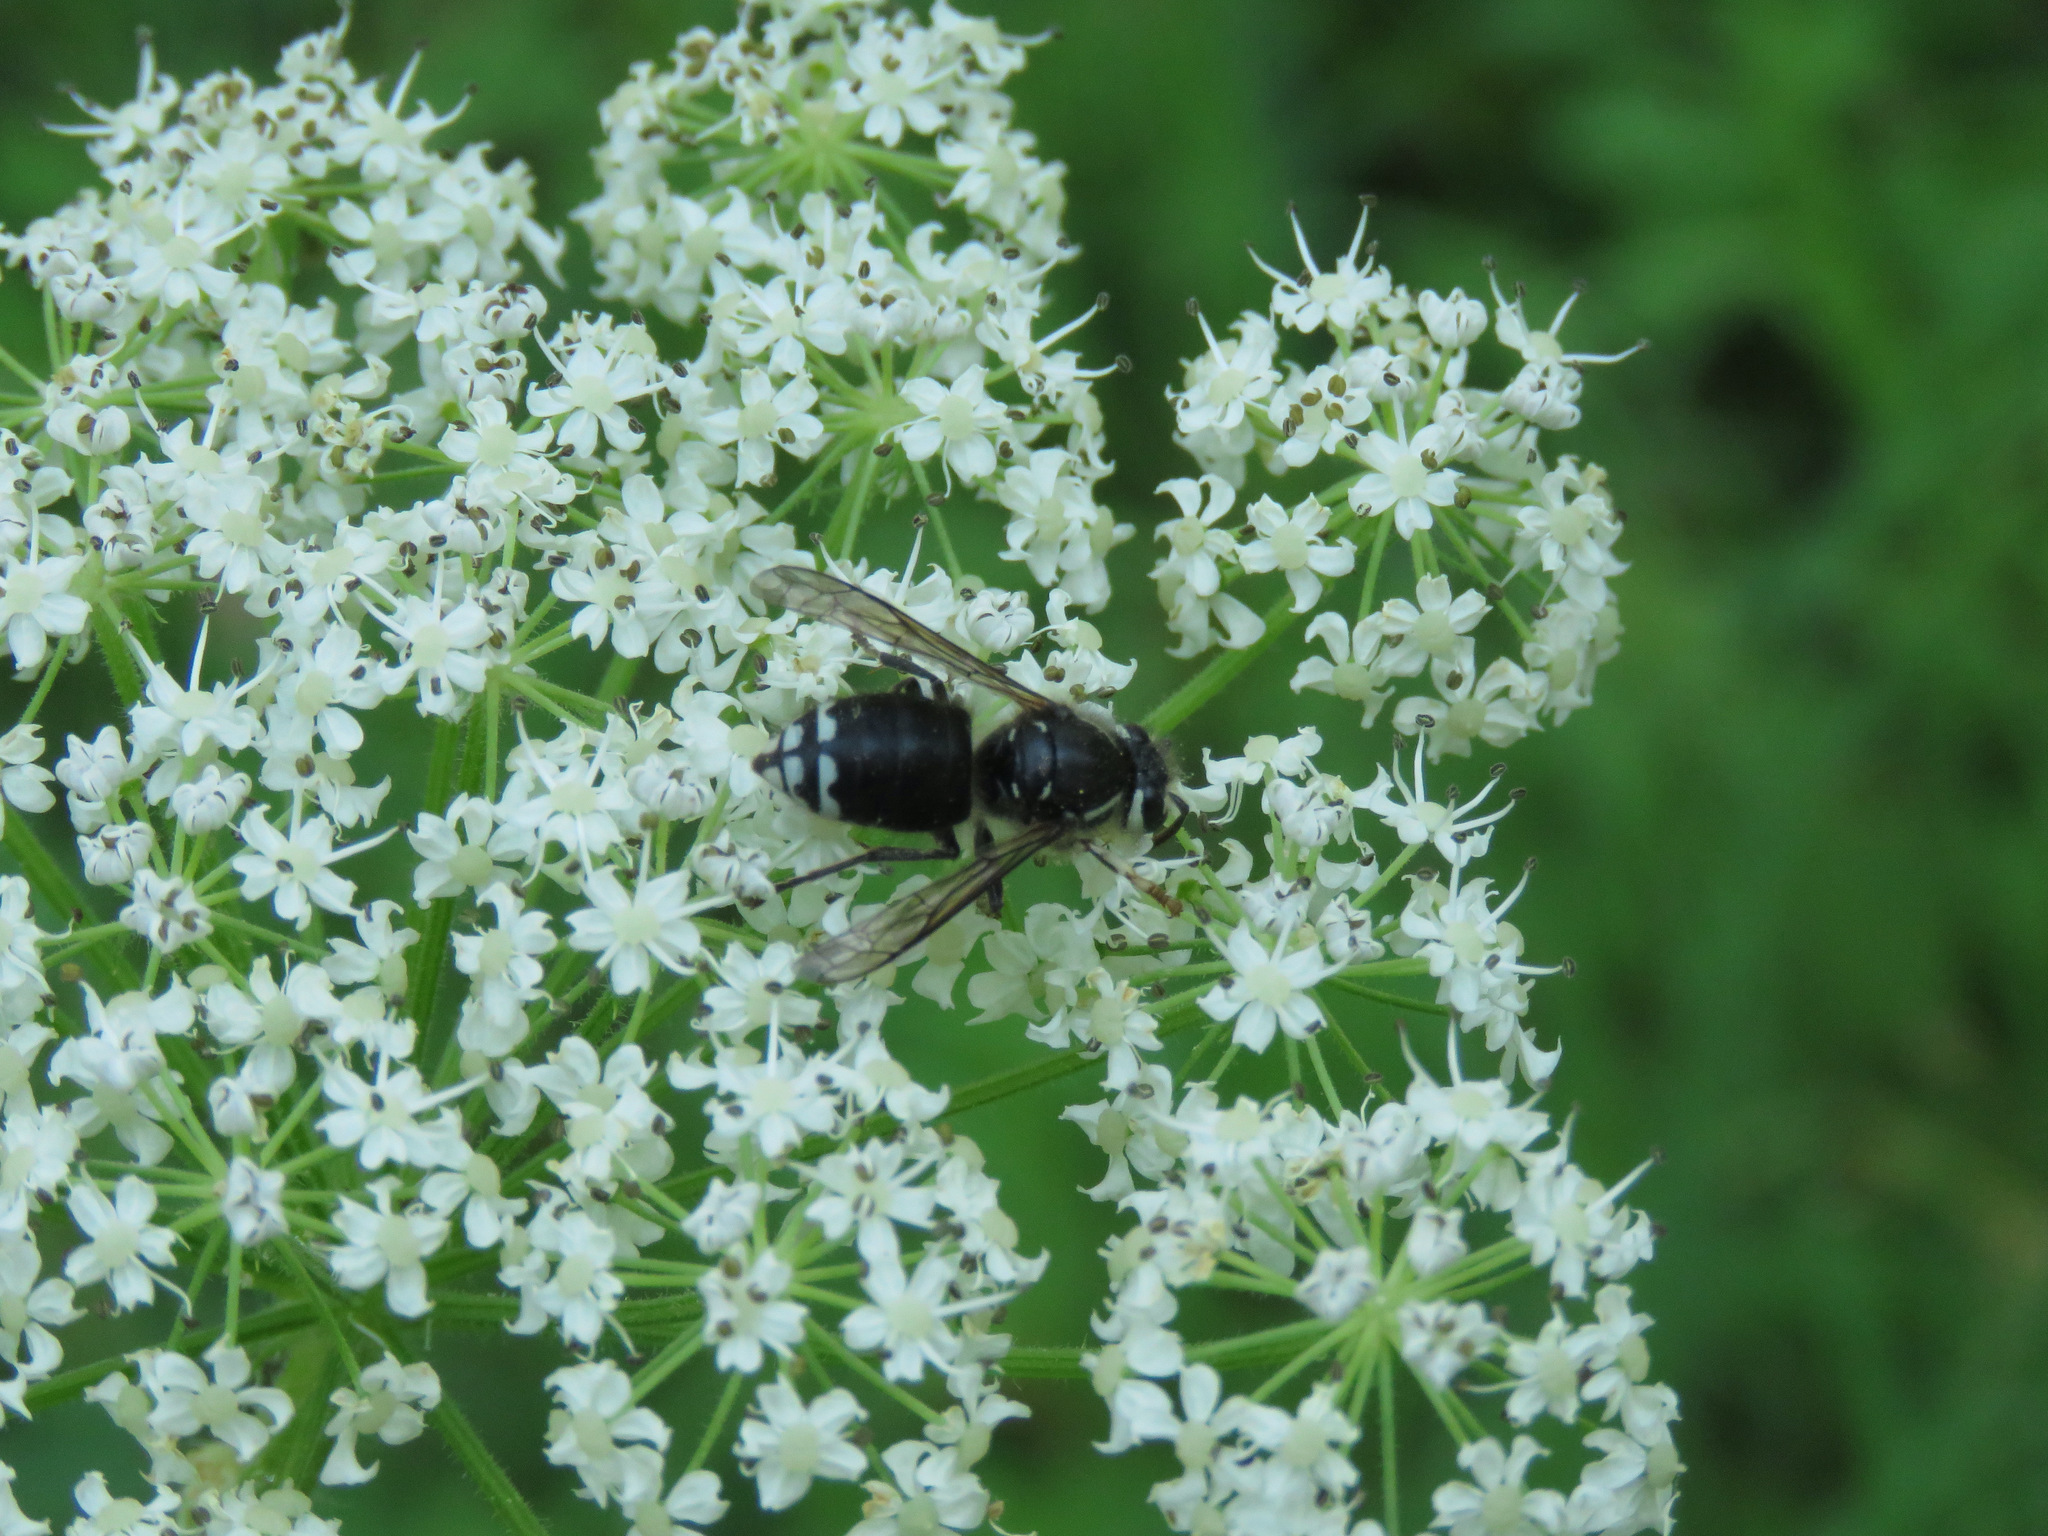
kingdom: Animalia
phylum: Arthropoda
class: Insecta
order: Hymenoptera
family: Vespidae
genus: Dolichovespula
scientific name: Dolichovespula maculata
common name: Bald-faced hornet
